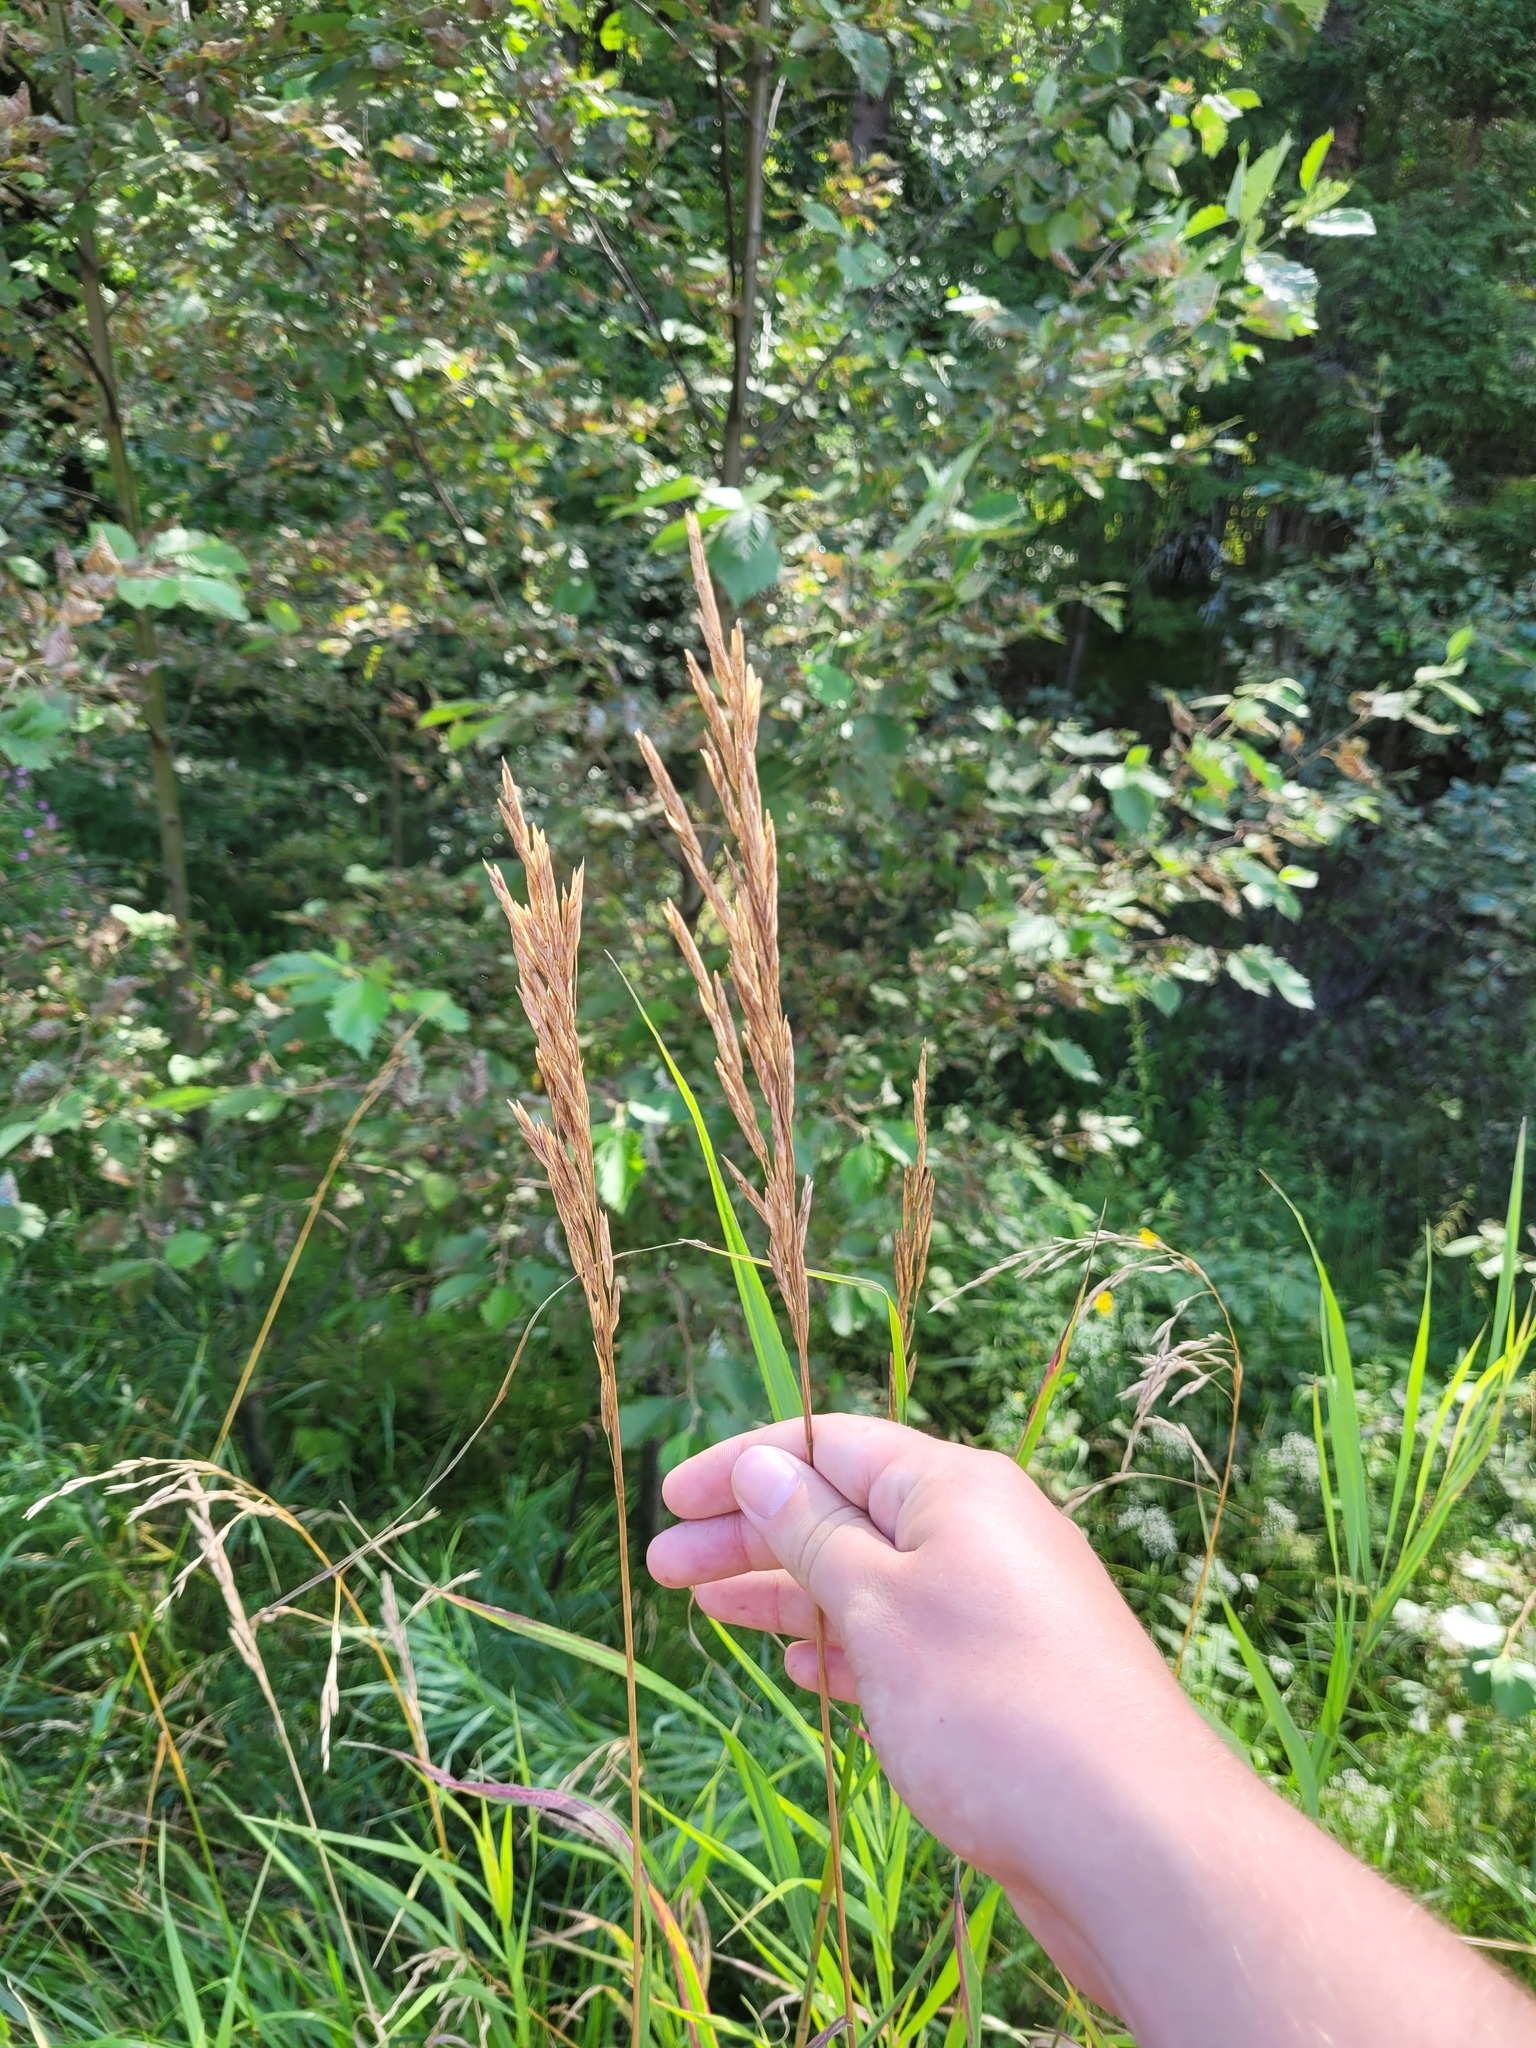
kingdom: Plantae
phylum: Tracheophyta
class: Liliopsida
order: Poales
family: Poaceae
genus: Bromus
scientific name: Bromus inermis
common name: Smooth brome
